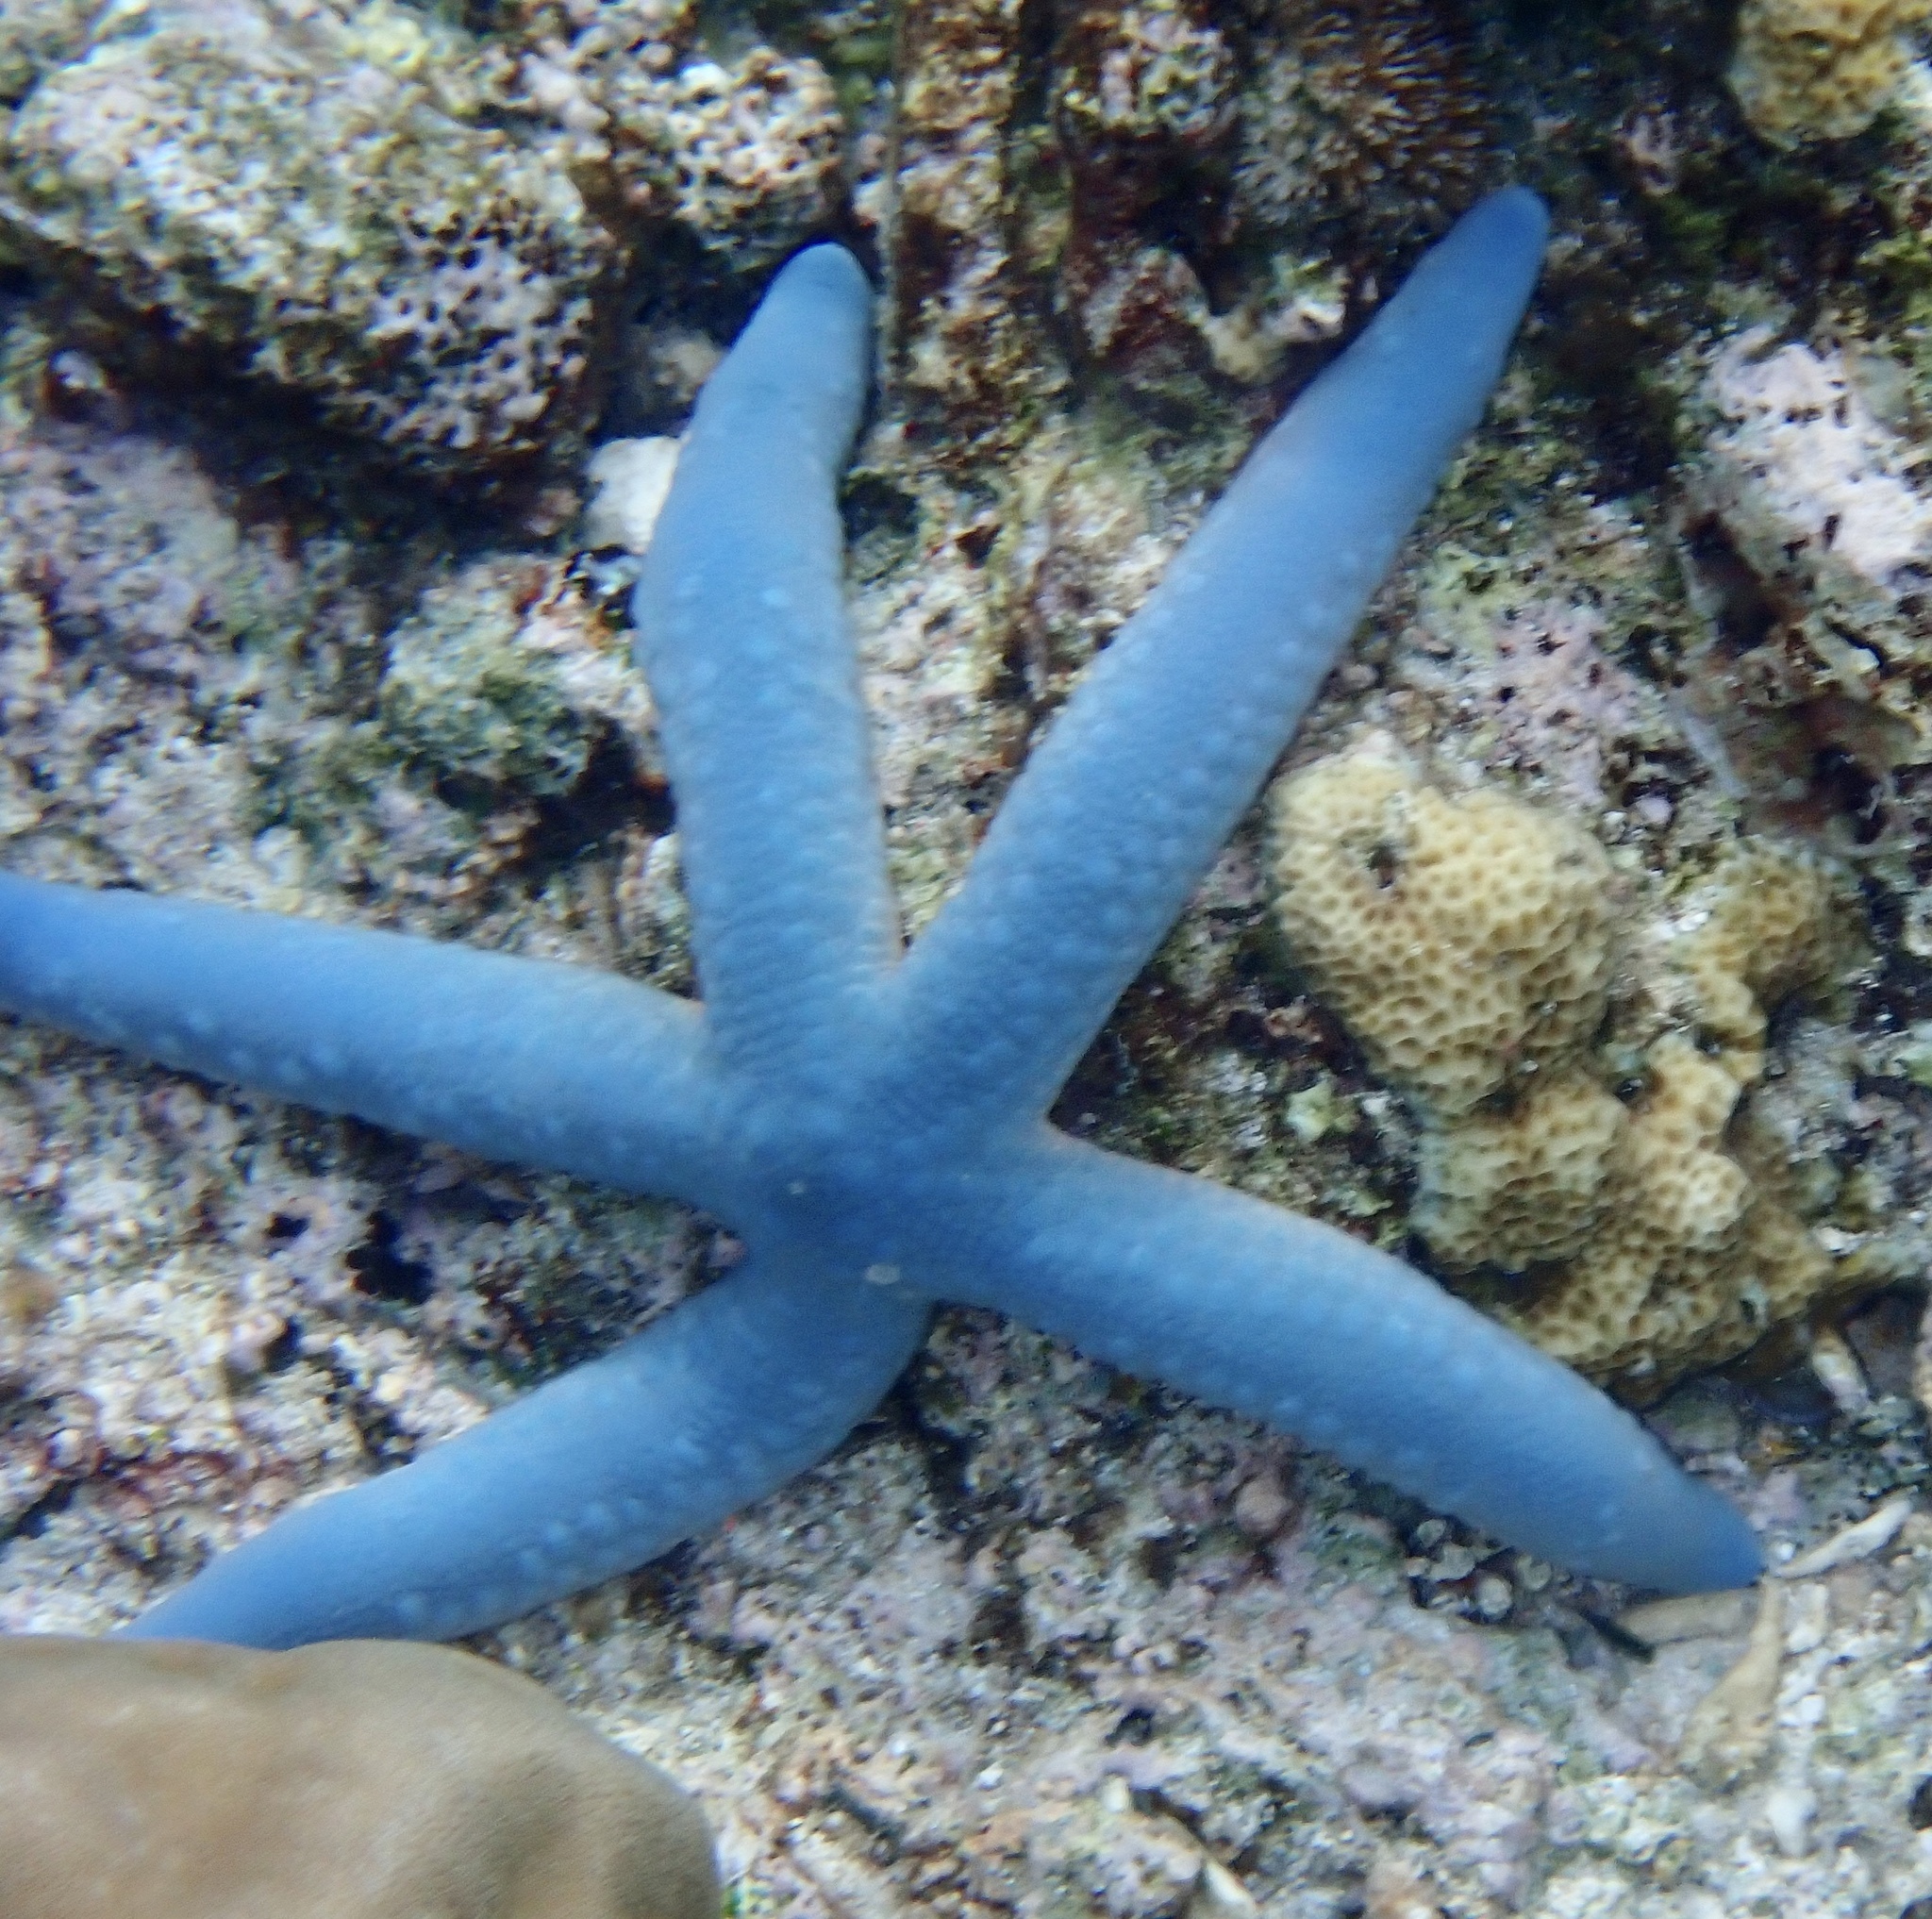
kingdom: Animalia
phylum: Echinodermata
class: Asteroidea
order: Valvatida
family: Ophidiasteridae
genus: Linckia
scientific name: Linckia laevigata
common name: Azure sea star
